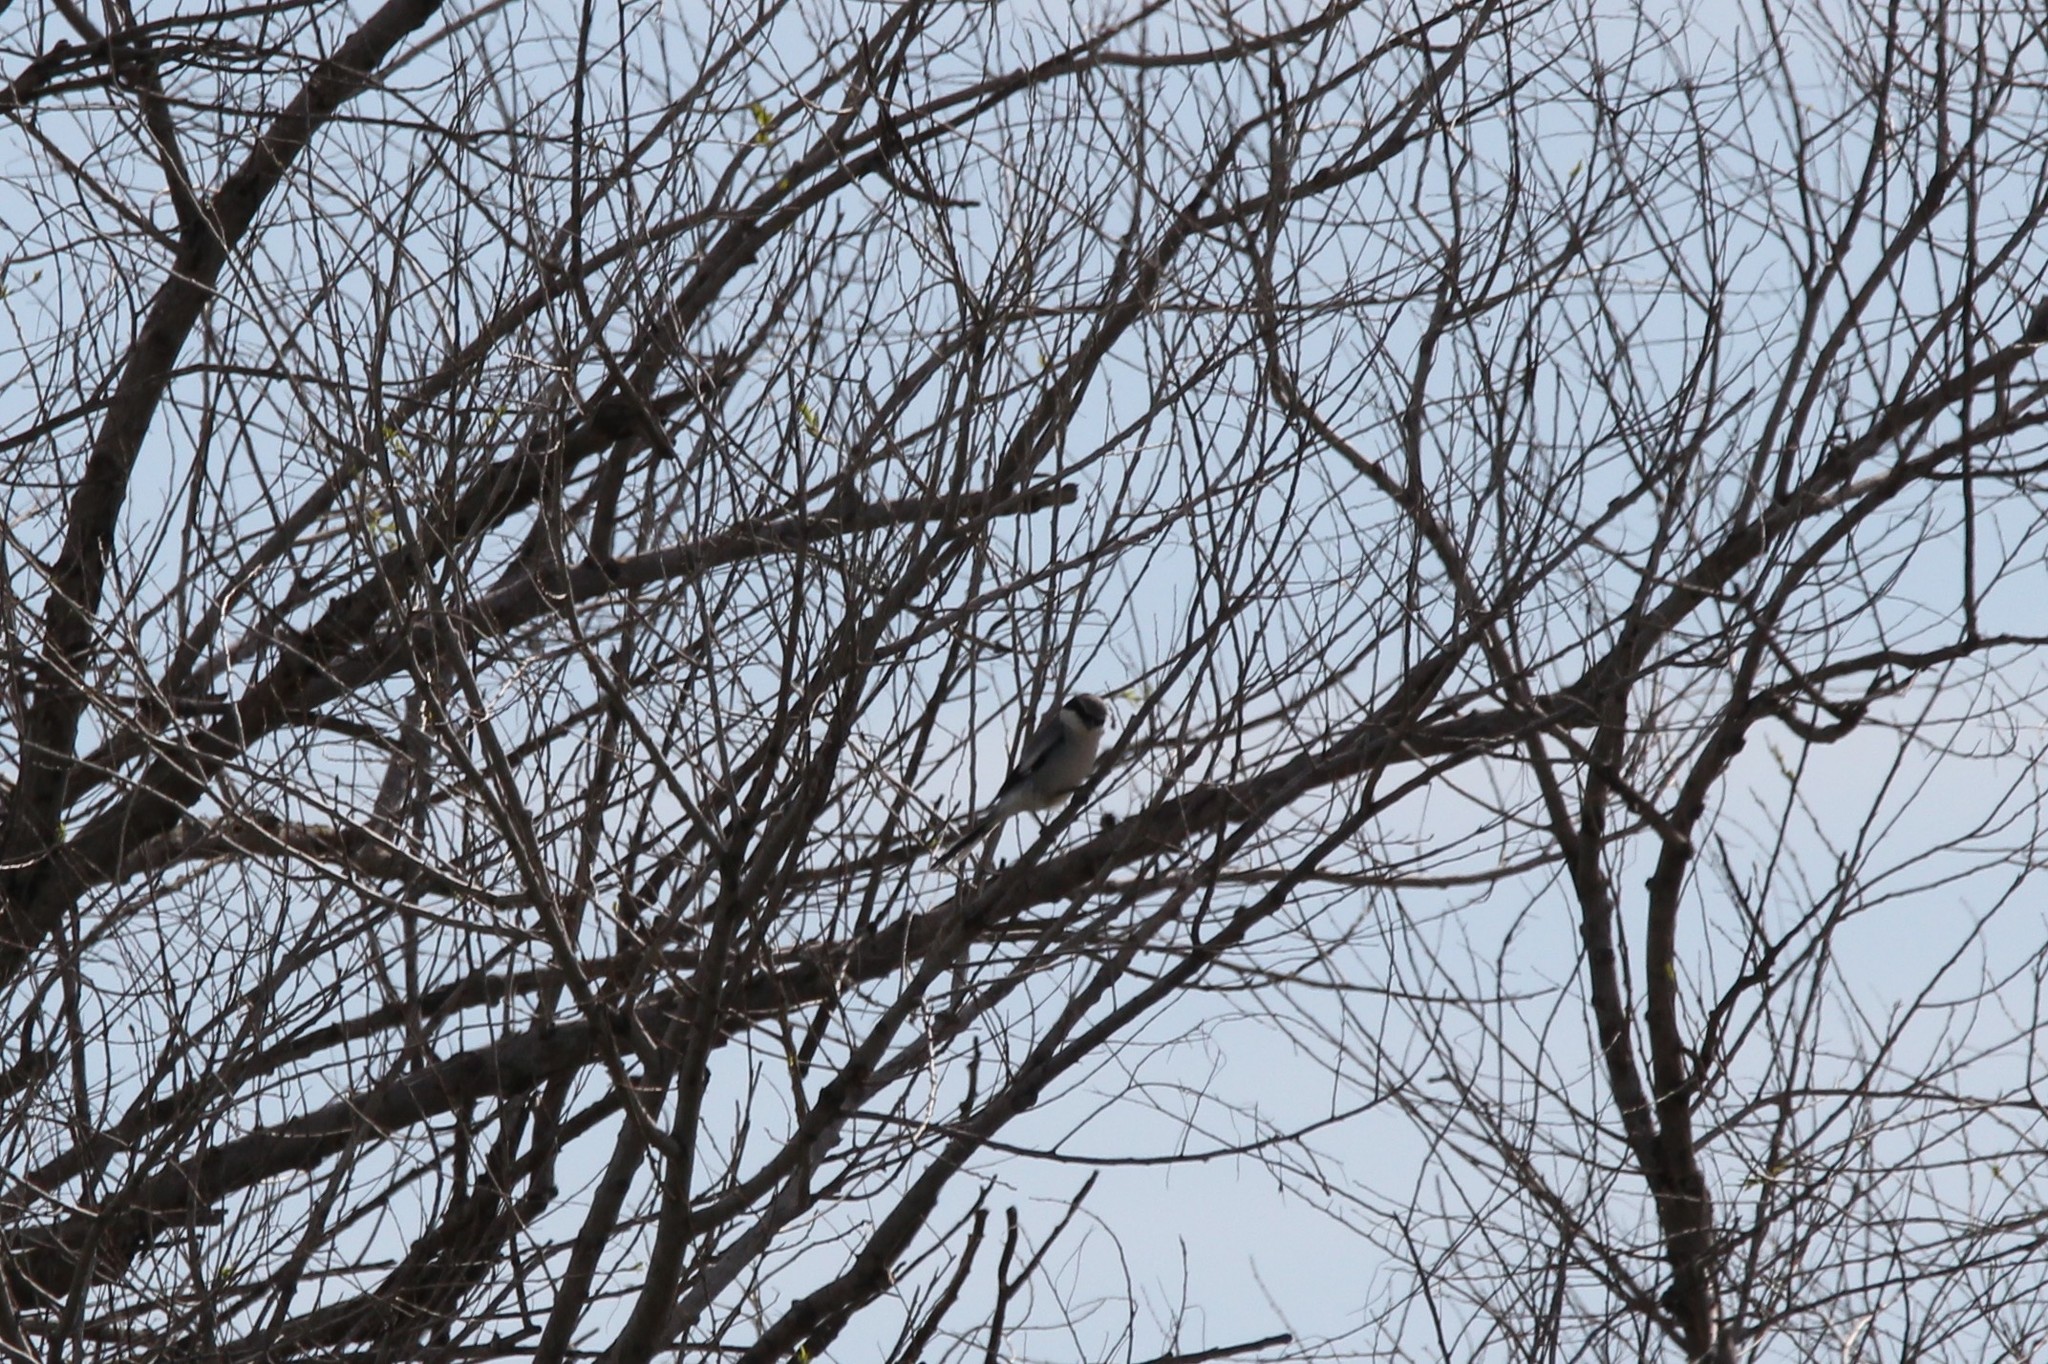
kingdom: Animalia
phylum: Chordata
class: Aves
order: Passeriformes
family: Laniidae
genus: Lanius
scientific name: Lanius ludovicianus
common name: Loggerhead shrike
